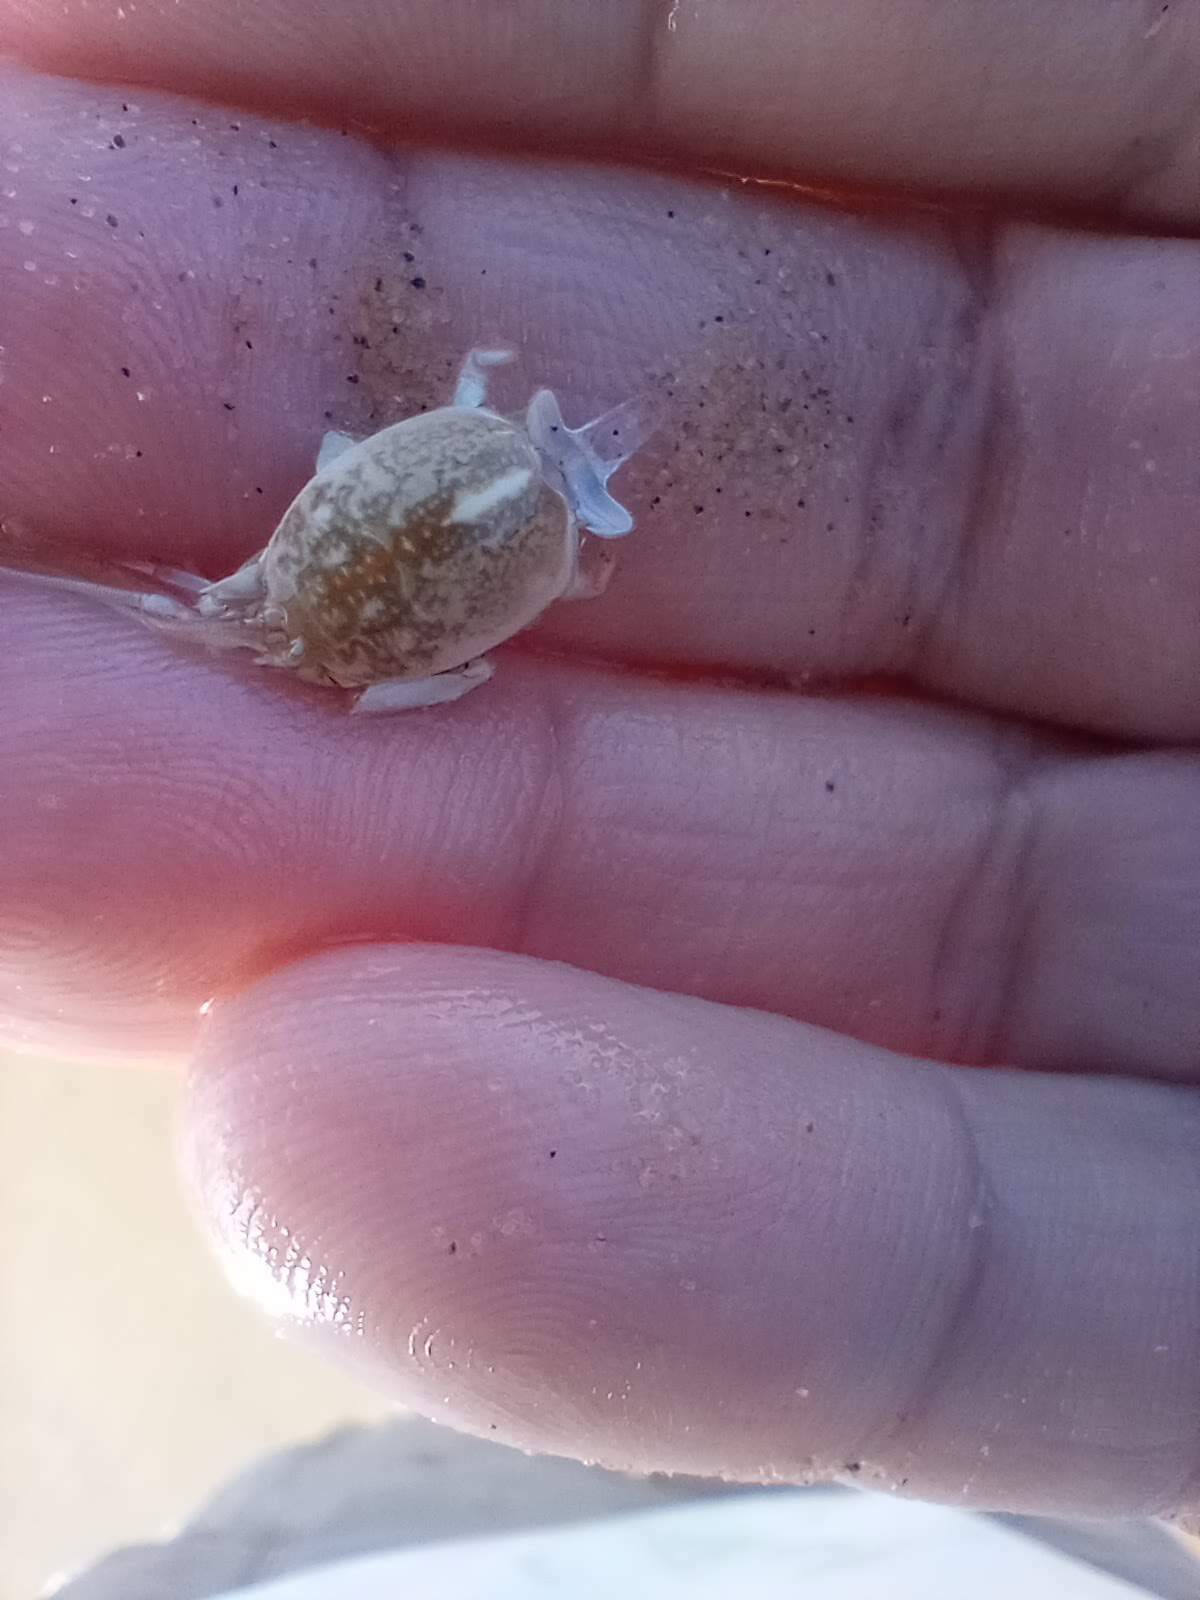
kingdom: Animalia
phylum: Arthropoda
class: Malacostraca
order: Decapoda
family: Hippidae
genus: Emerita
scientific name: Emerita analoga
